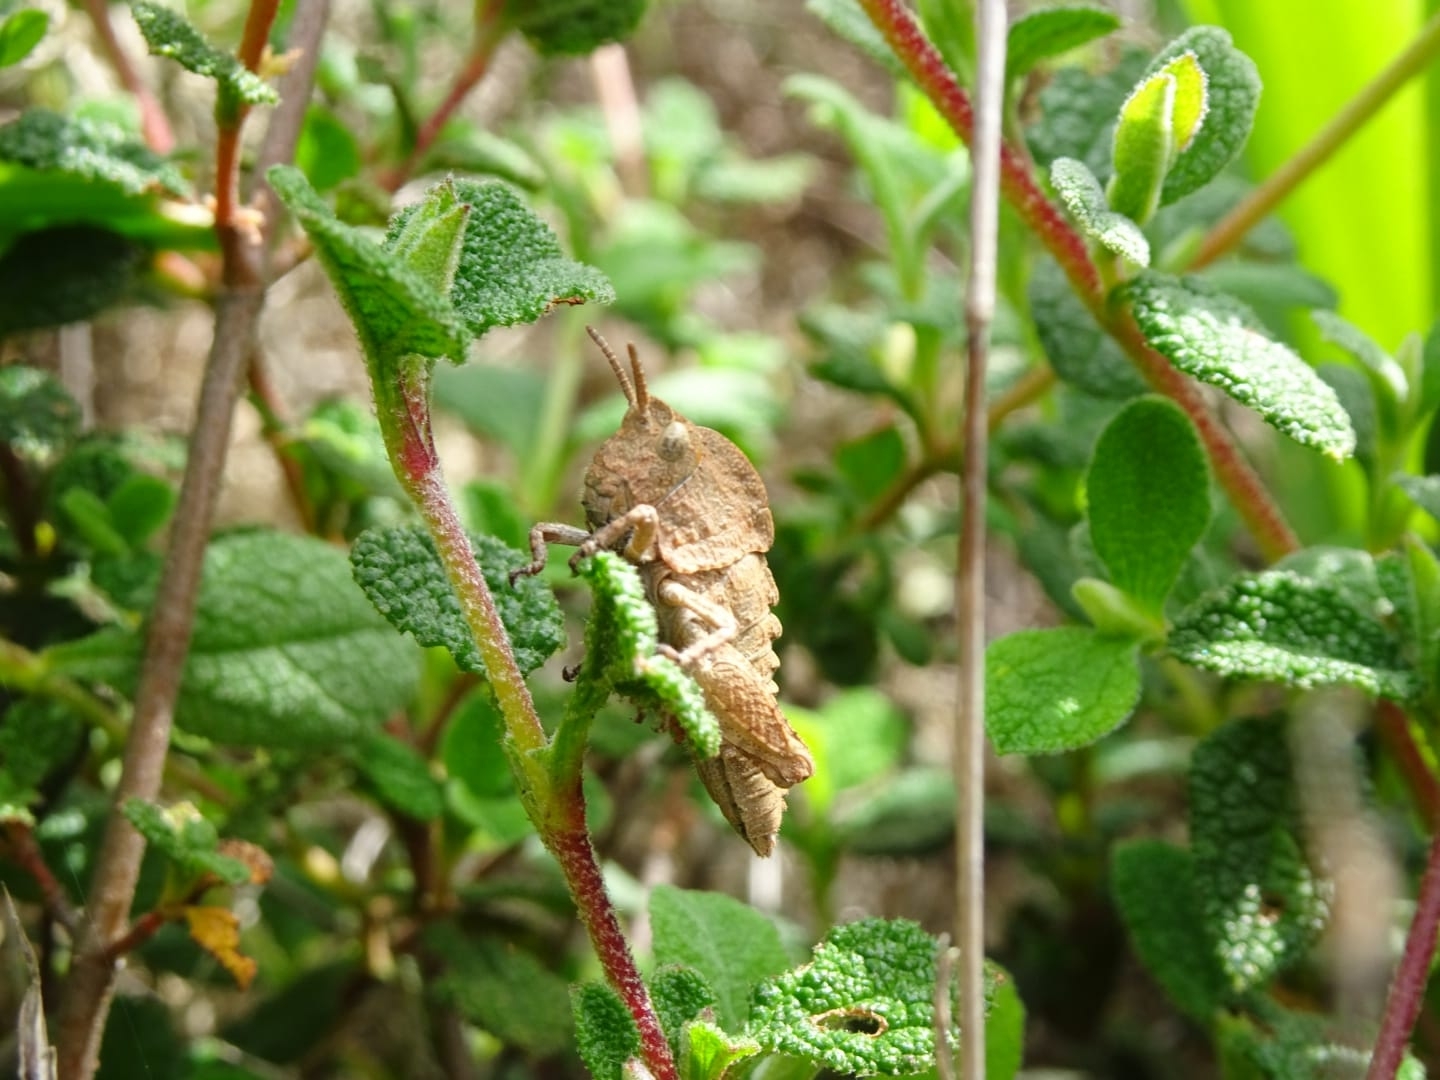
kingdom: Animalia
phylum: Arthropoda
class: Insecta
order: Orthoptera
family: Pamphagidae
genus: Euryparyphes
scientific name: Euryparyphes terrulentus
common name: Earthling stone grasshopper
